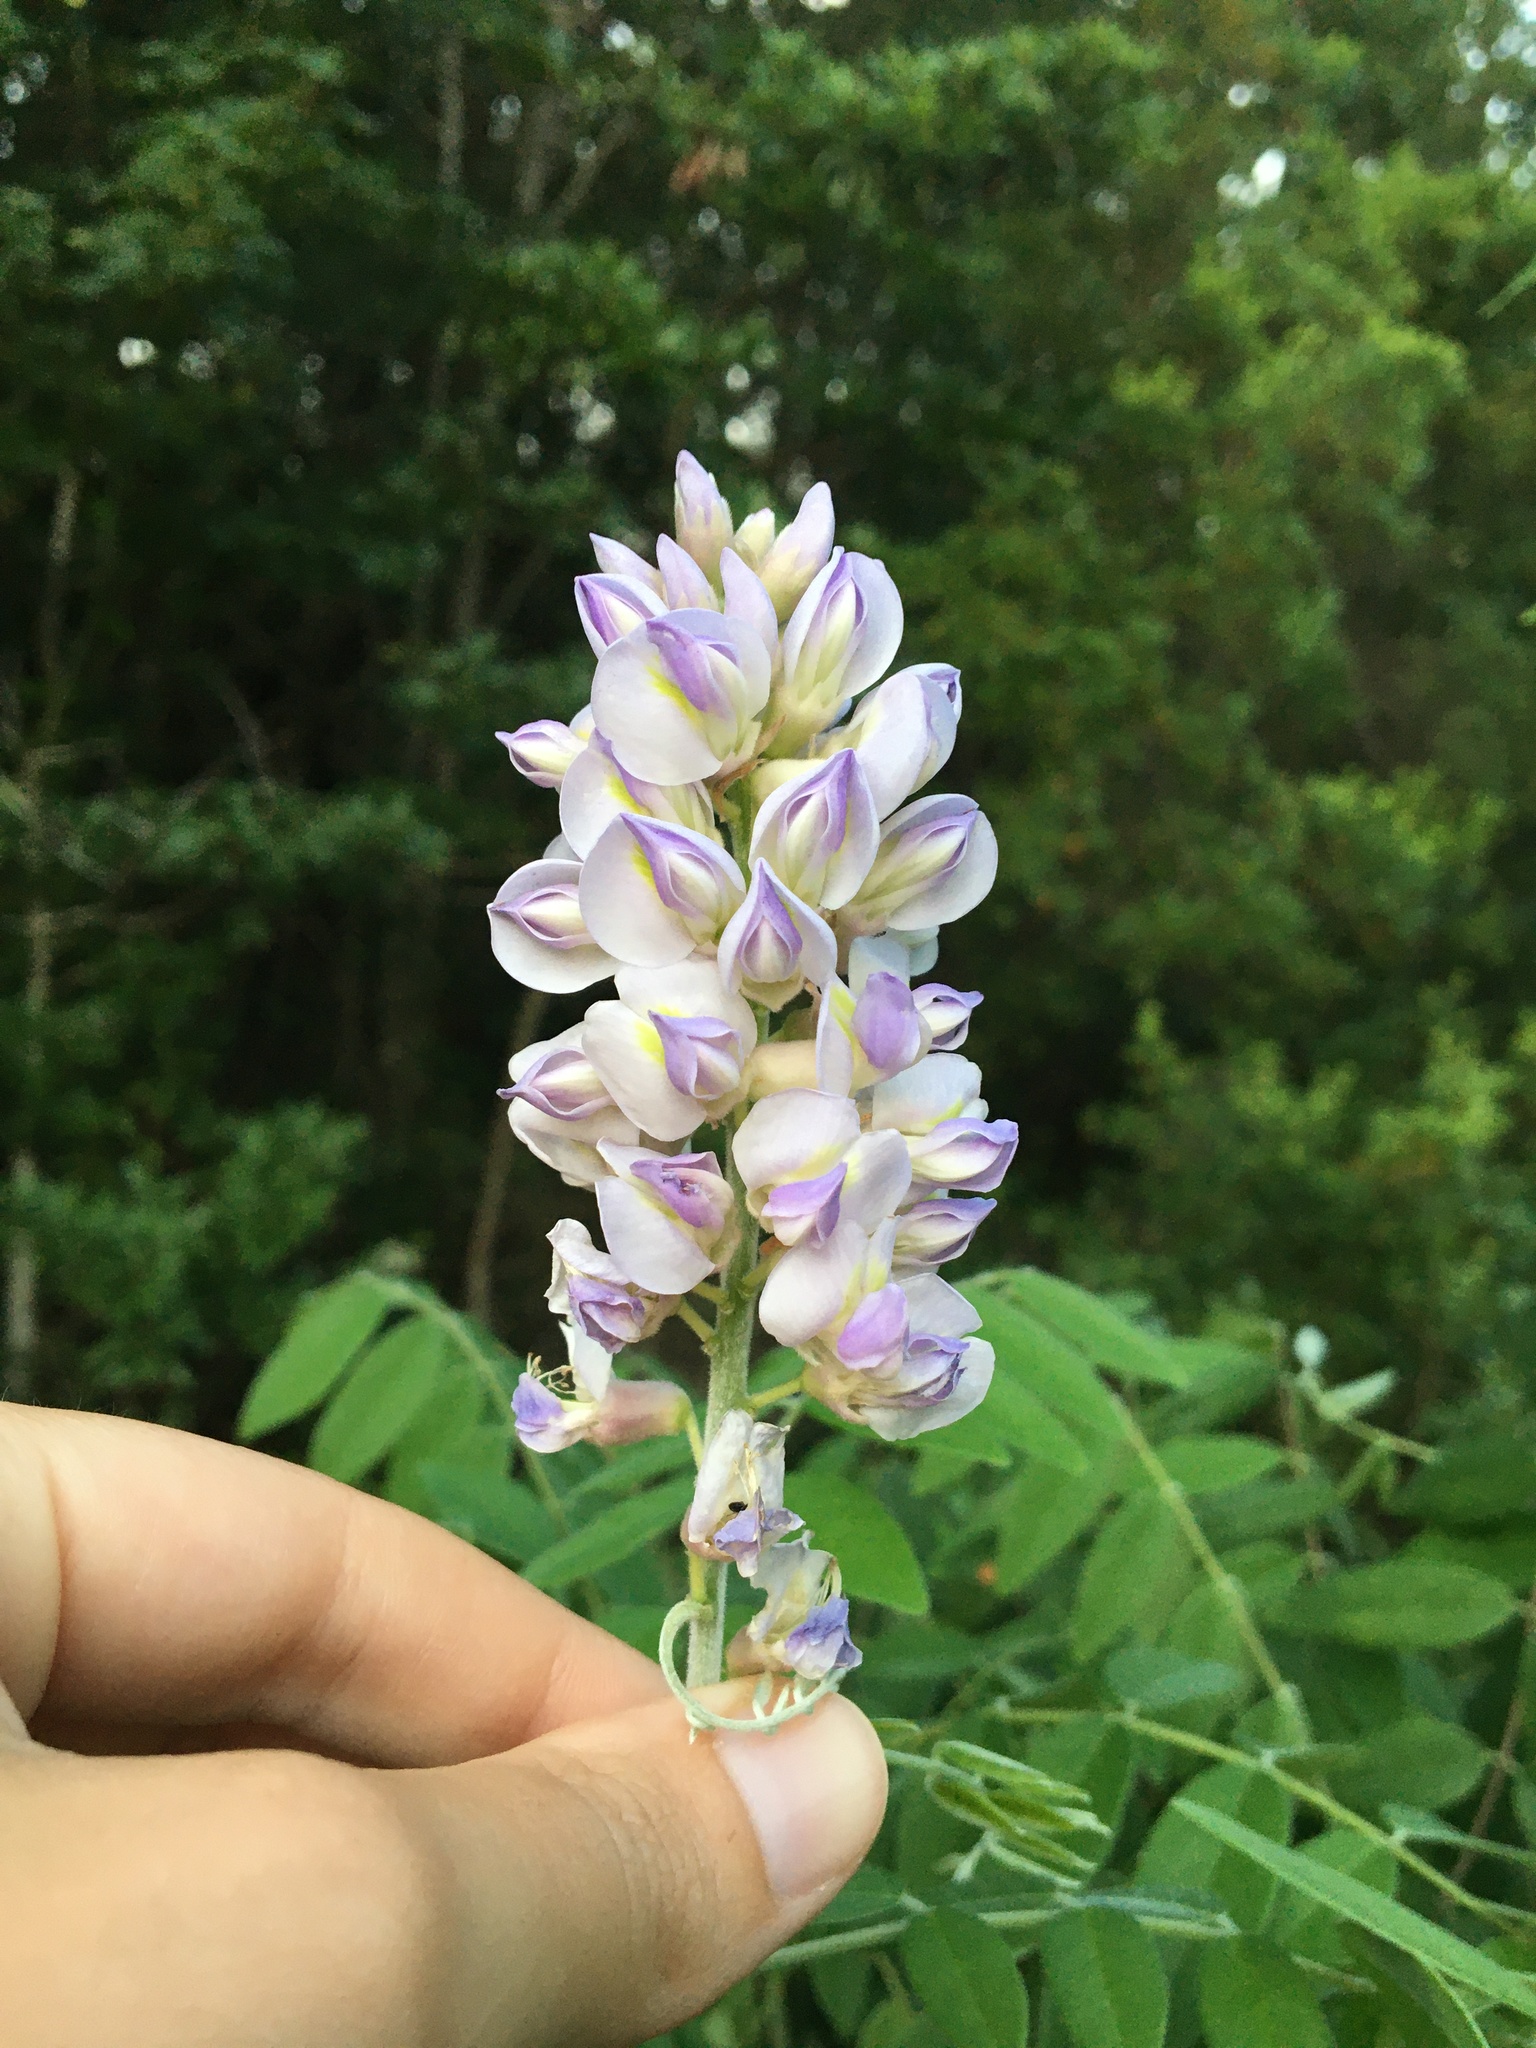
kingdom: Plantae
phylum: Tracheophyta
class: Magnoliopsida
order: Fabales
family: Fabaceae
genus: Wisteria
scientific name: Wisteria frutescens
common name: American wisteria
